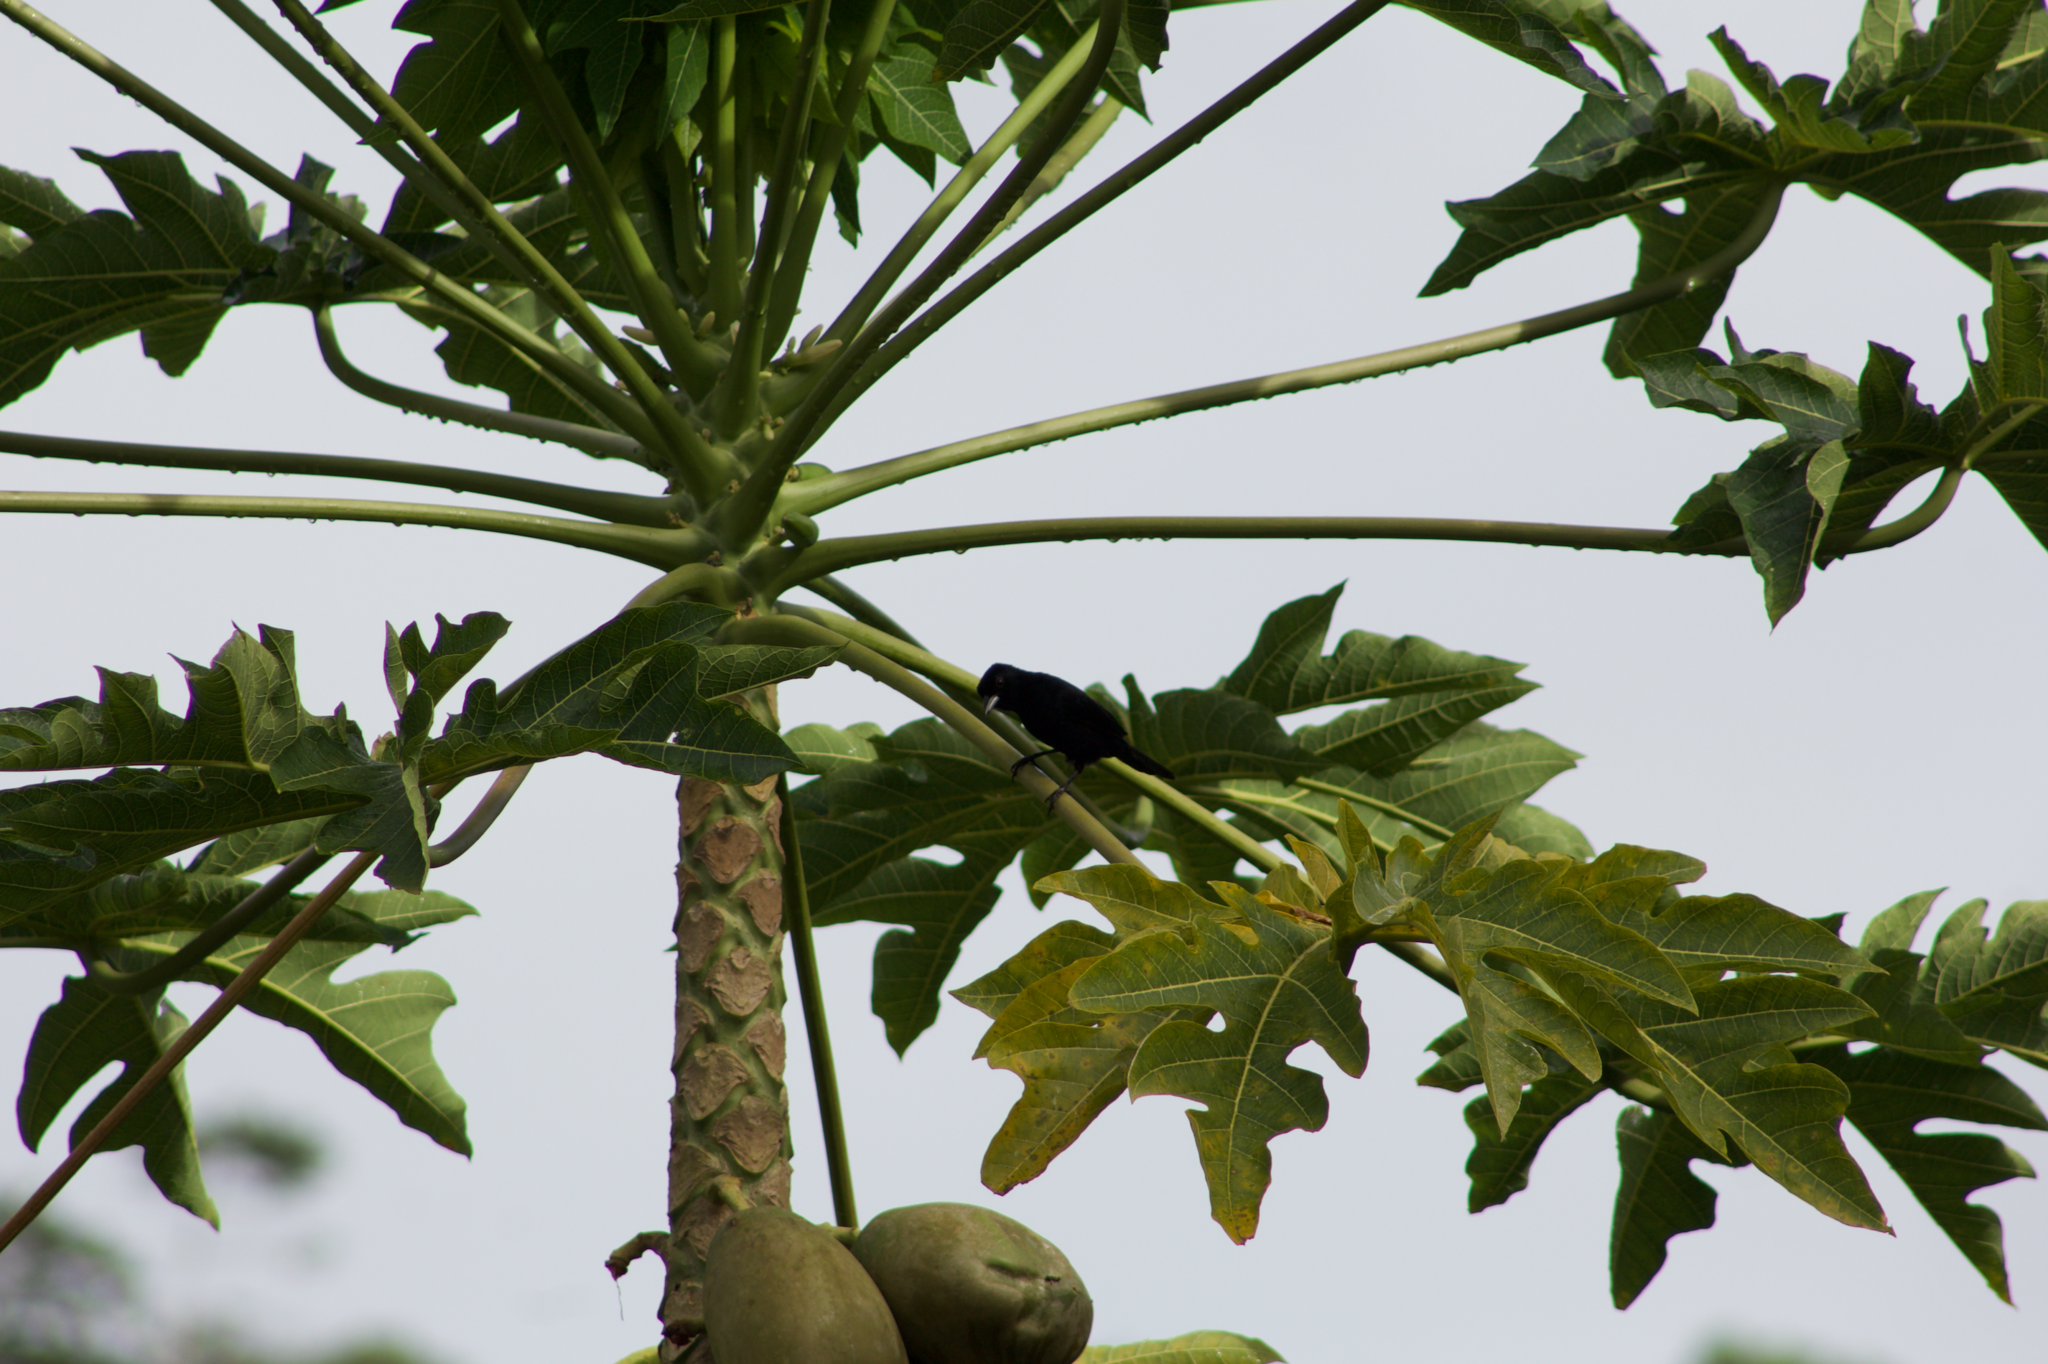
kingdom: Animalia
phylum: Chordata
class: Aves
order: Passeriformes
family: Thraupidae
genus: Tachyphonus
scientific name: Tachyphonus rufus
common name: White-lined tanager
